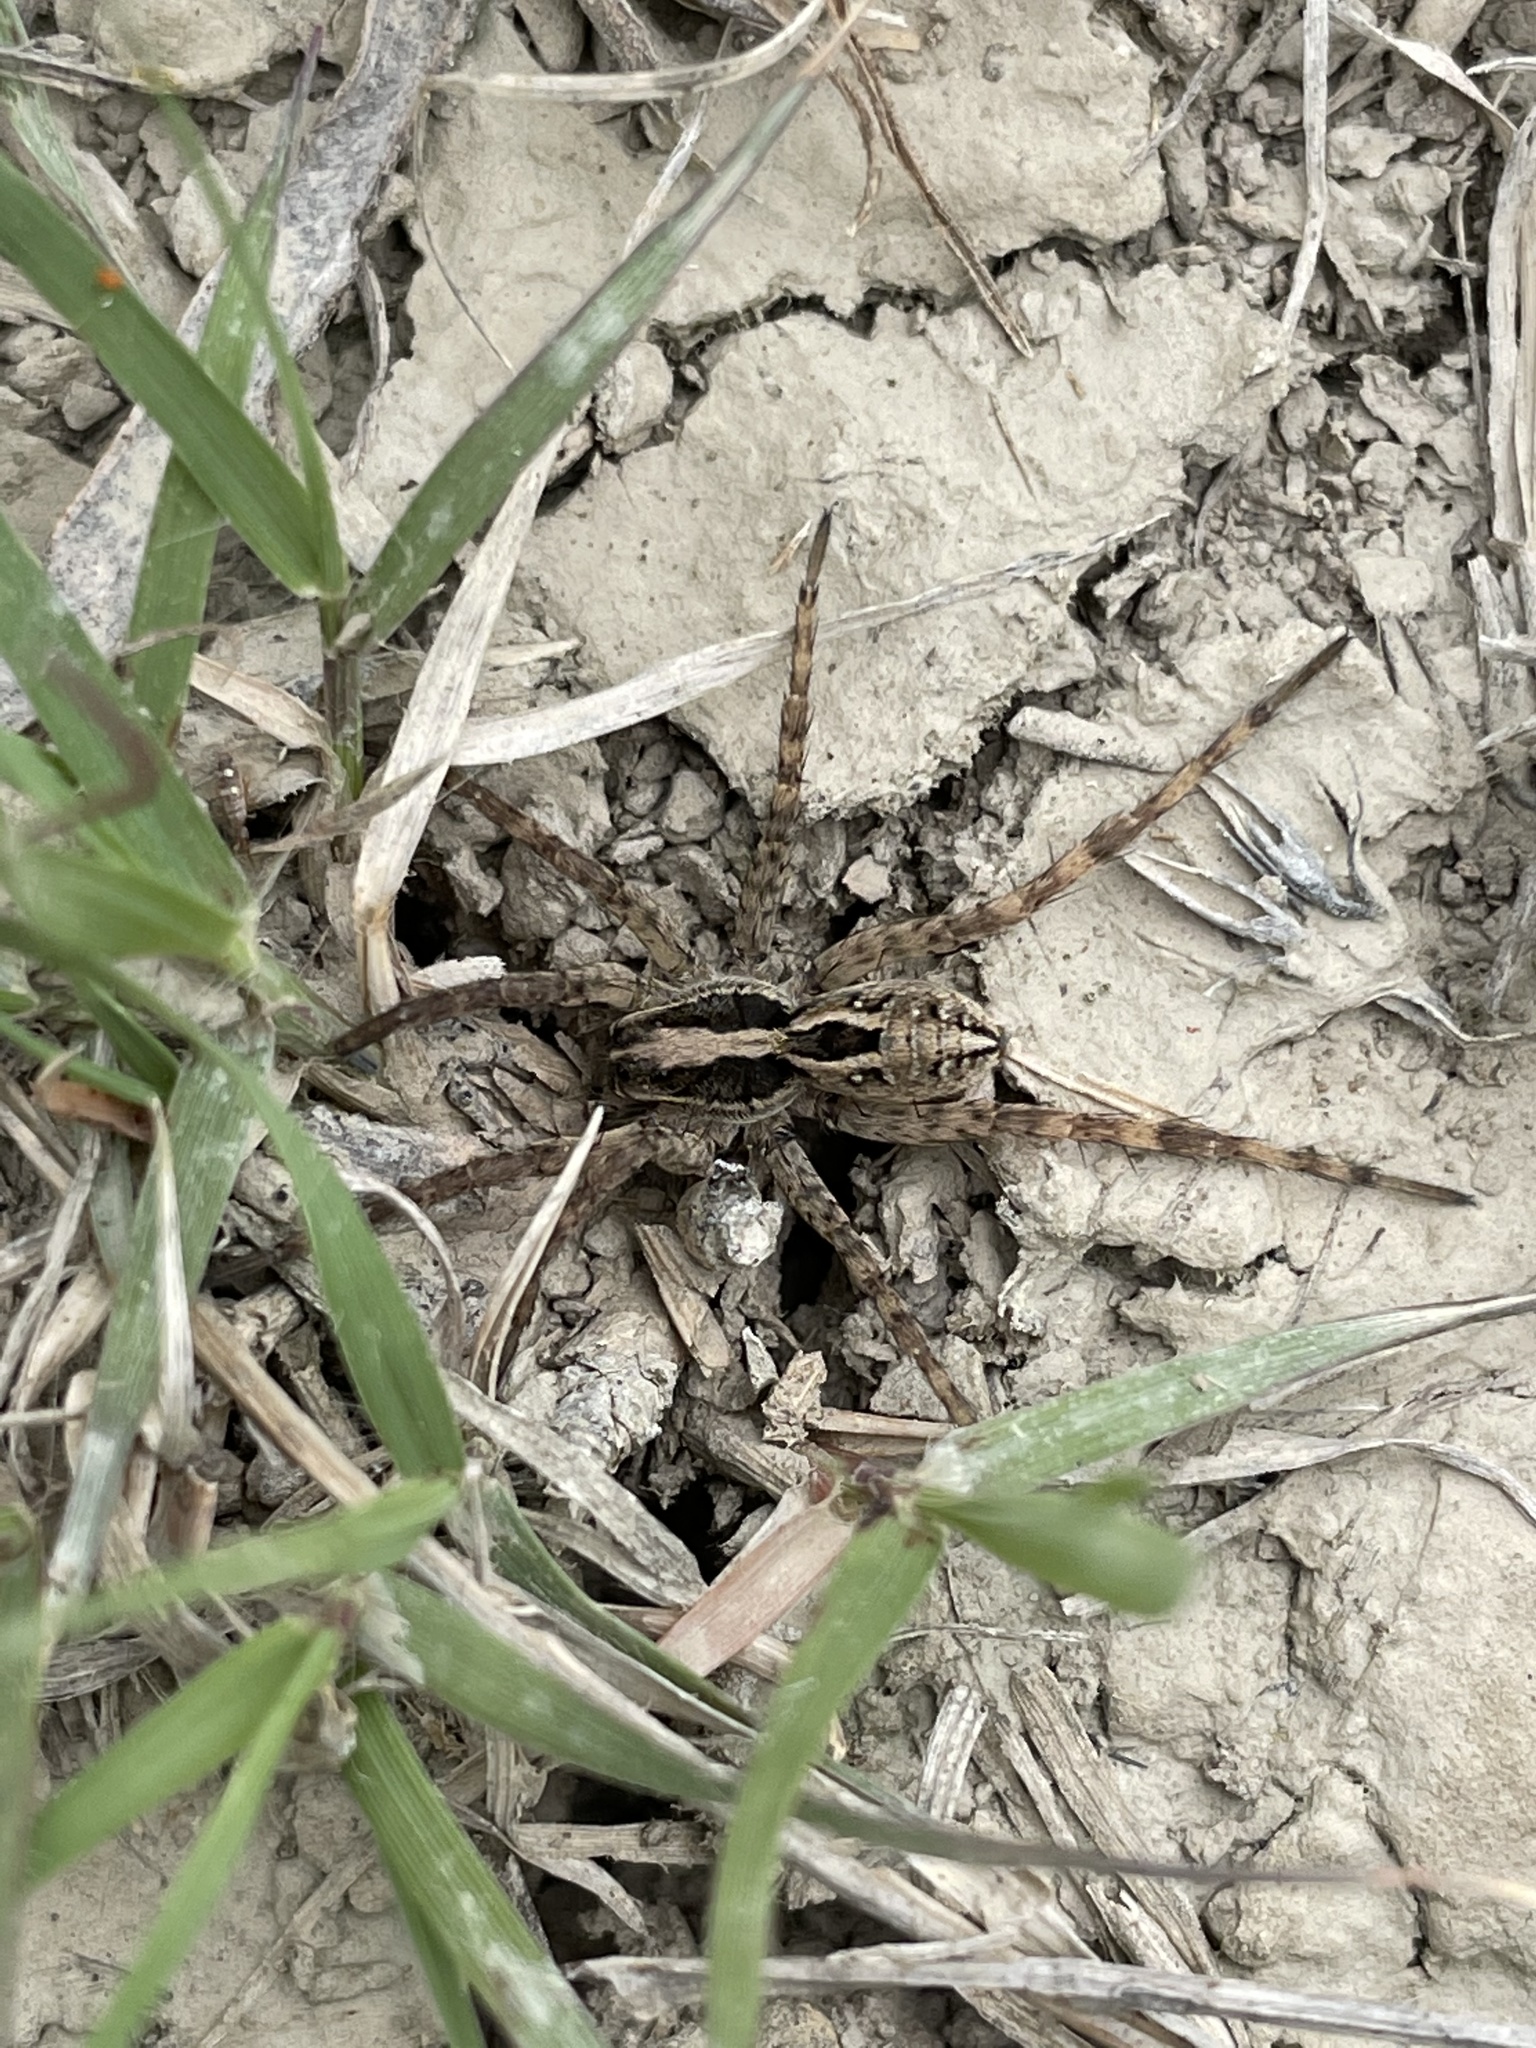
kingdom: Animalia
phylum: Arthropoda
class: Arachnida
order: Araneae
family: Lycosidae
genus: Schizocosa
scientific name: Schizocosa avida
